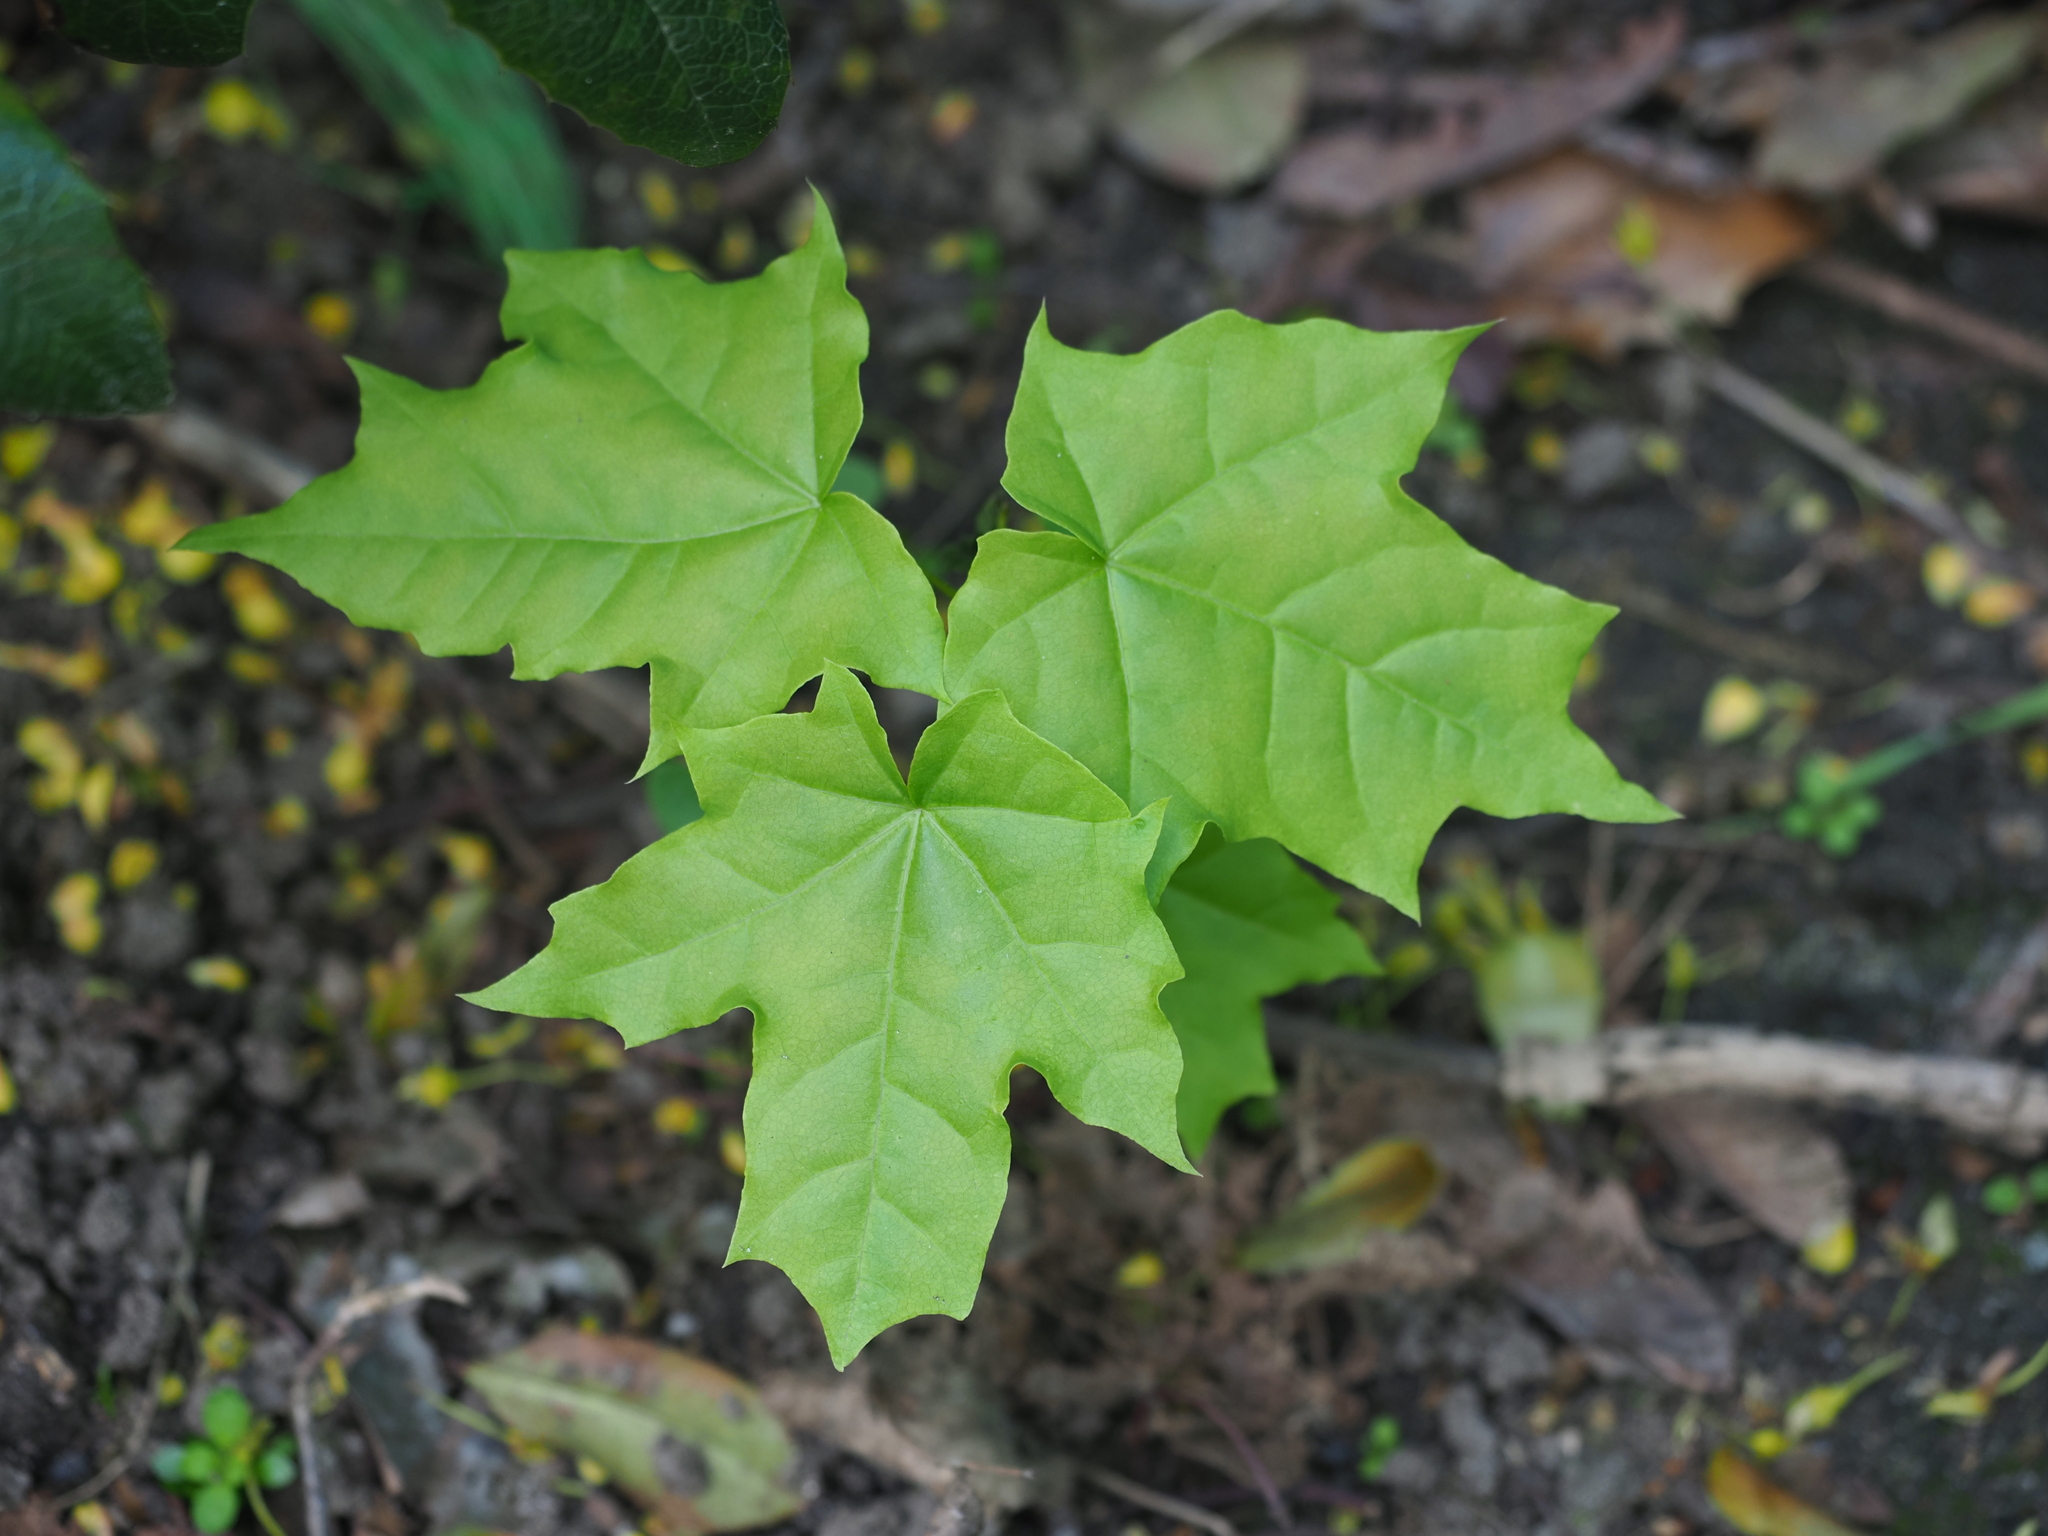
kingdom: Plantae
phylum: Tracheophyta
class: Magnoliopsida
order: Sapindales
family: Sapindaceae
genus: Acer
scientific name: Acer platanoides
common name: Norway maple
